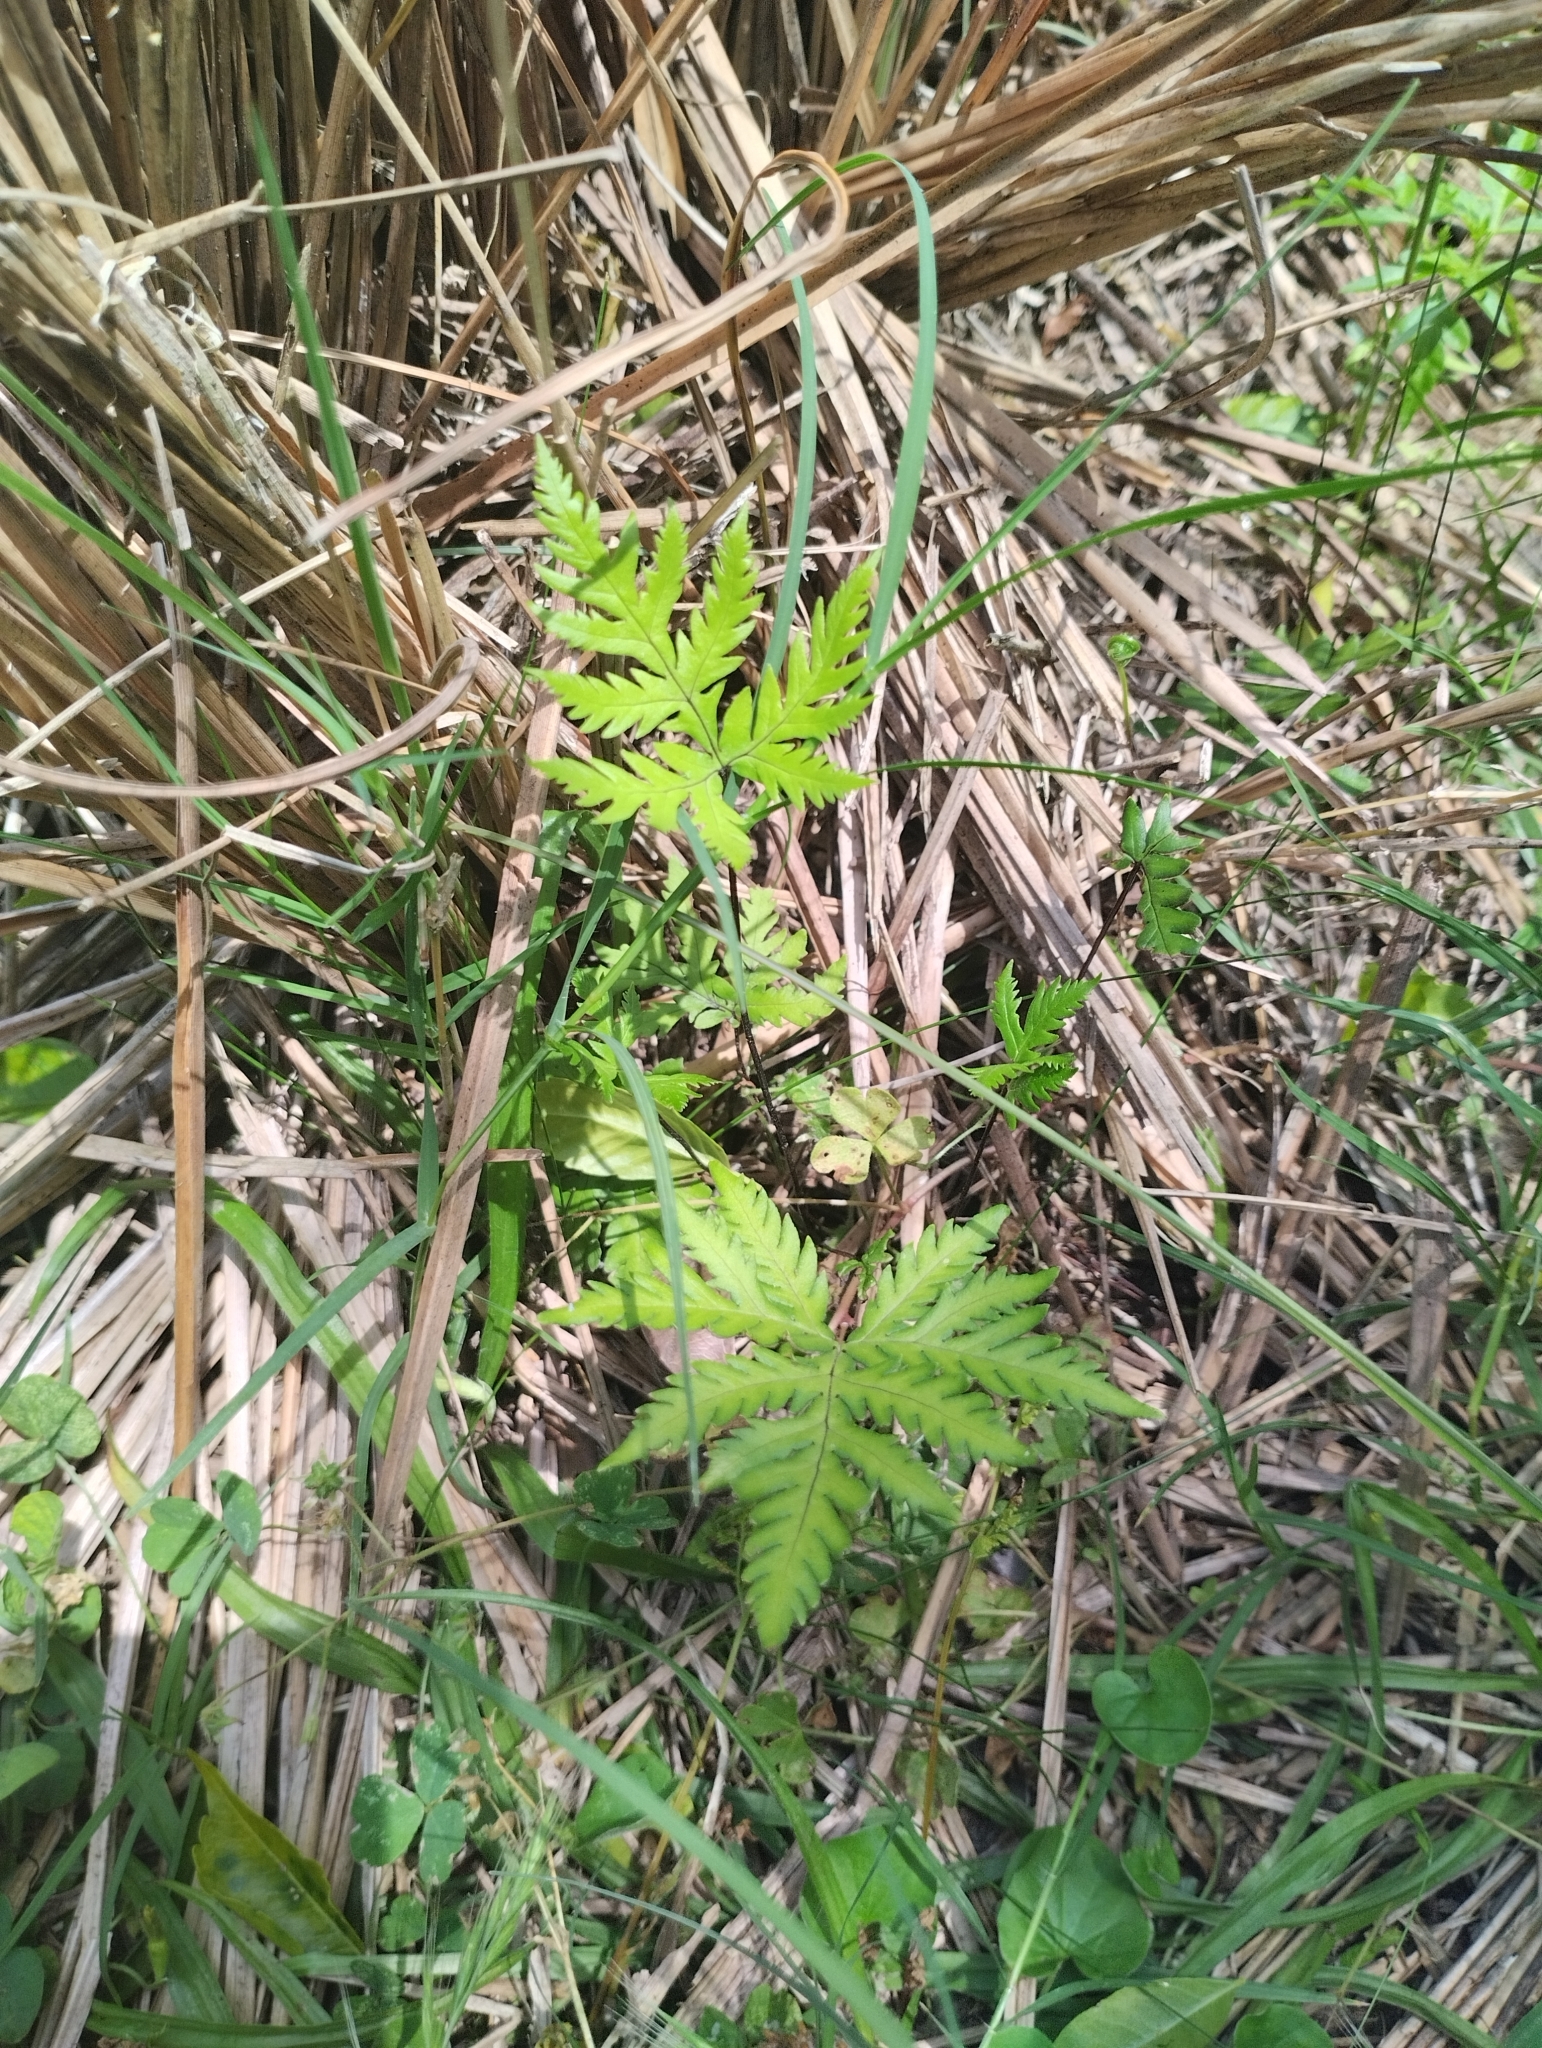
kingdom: Plantae
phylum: Tracheophyta
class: Polypodiopsida
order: Polypodiales
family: Pteridaceae
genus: Doryopteris
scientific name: Doryopteris concolor
